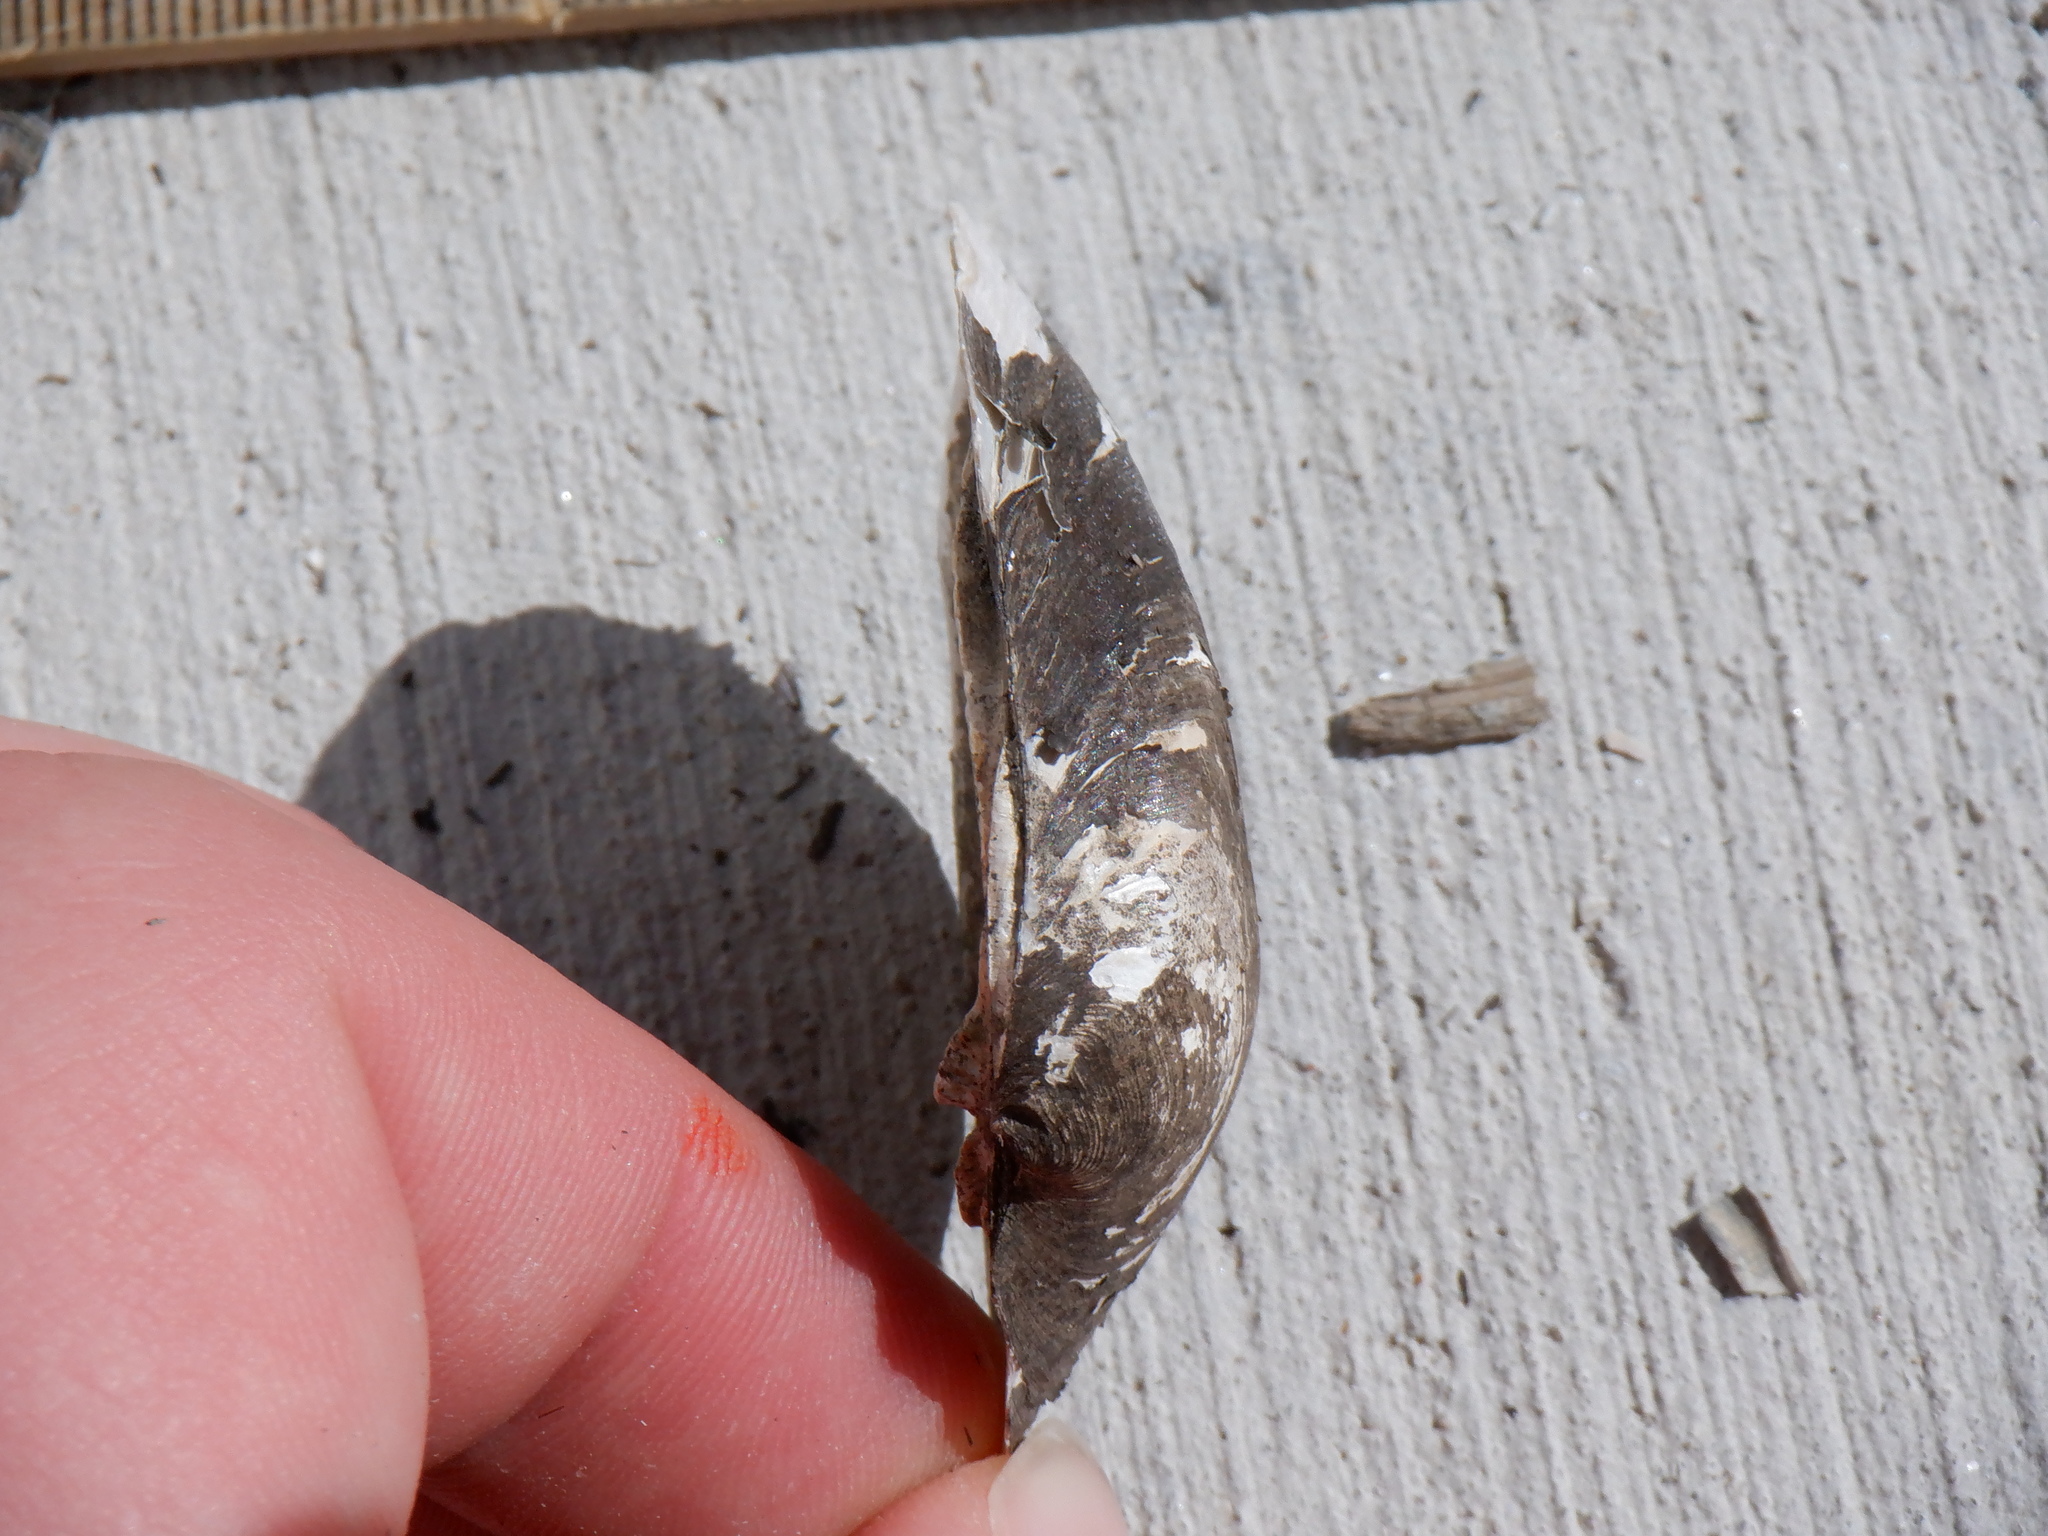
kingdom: Animalia
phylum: Mollusca
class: Bivalvia
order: Unionida
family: Unionidae
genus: Fusconaia
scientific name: Fusconaia flava
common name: Wabash pigtoe
